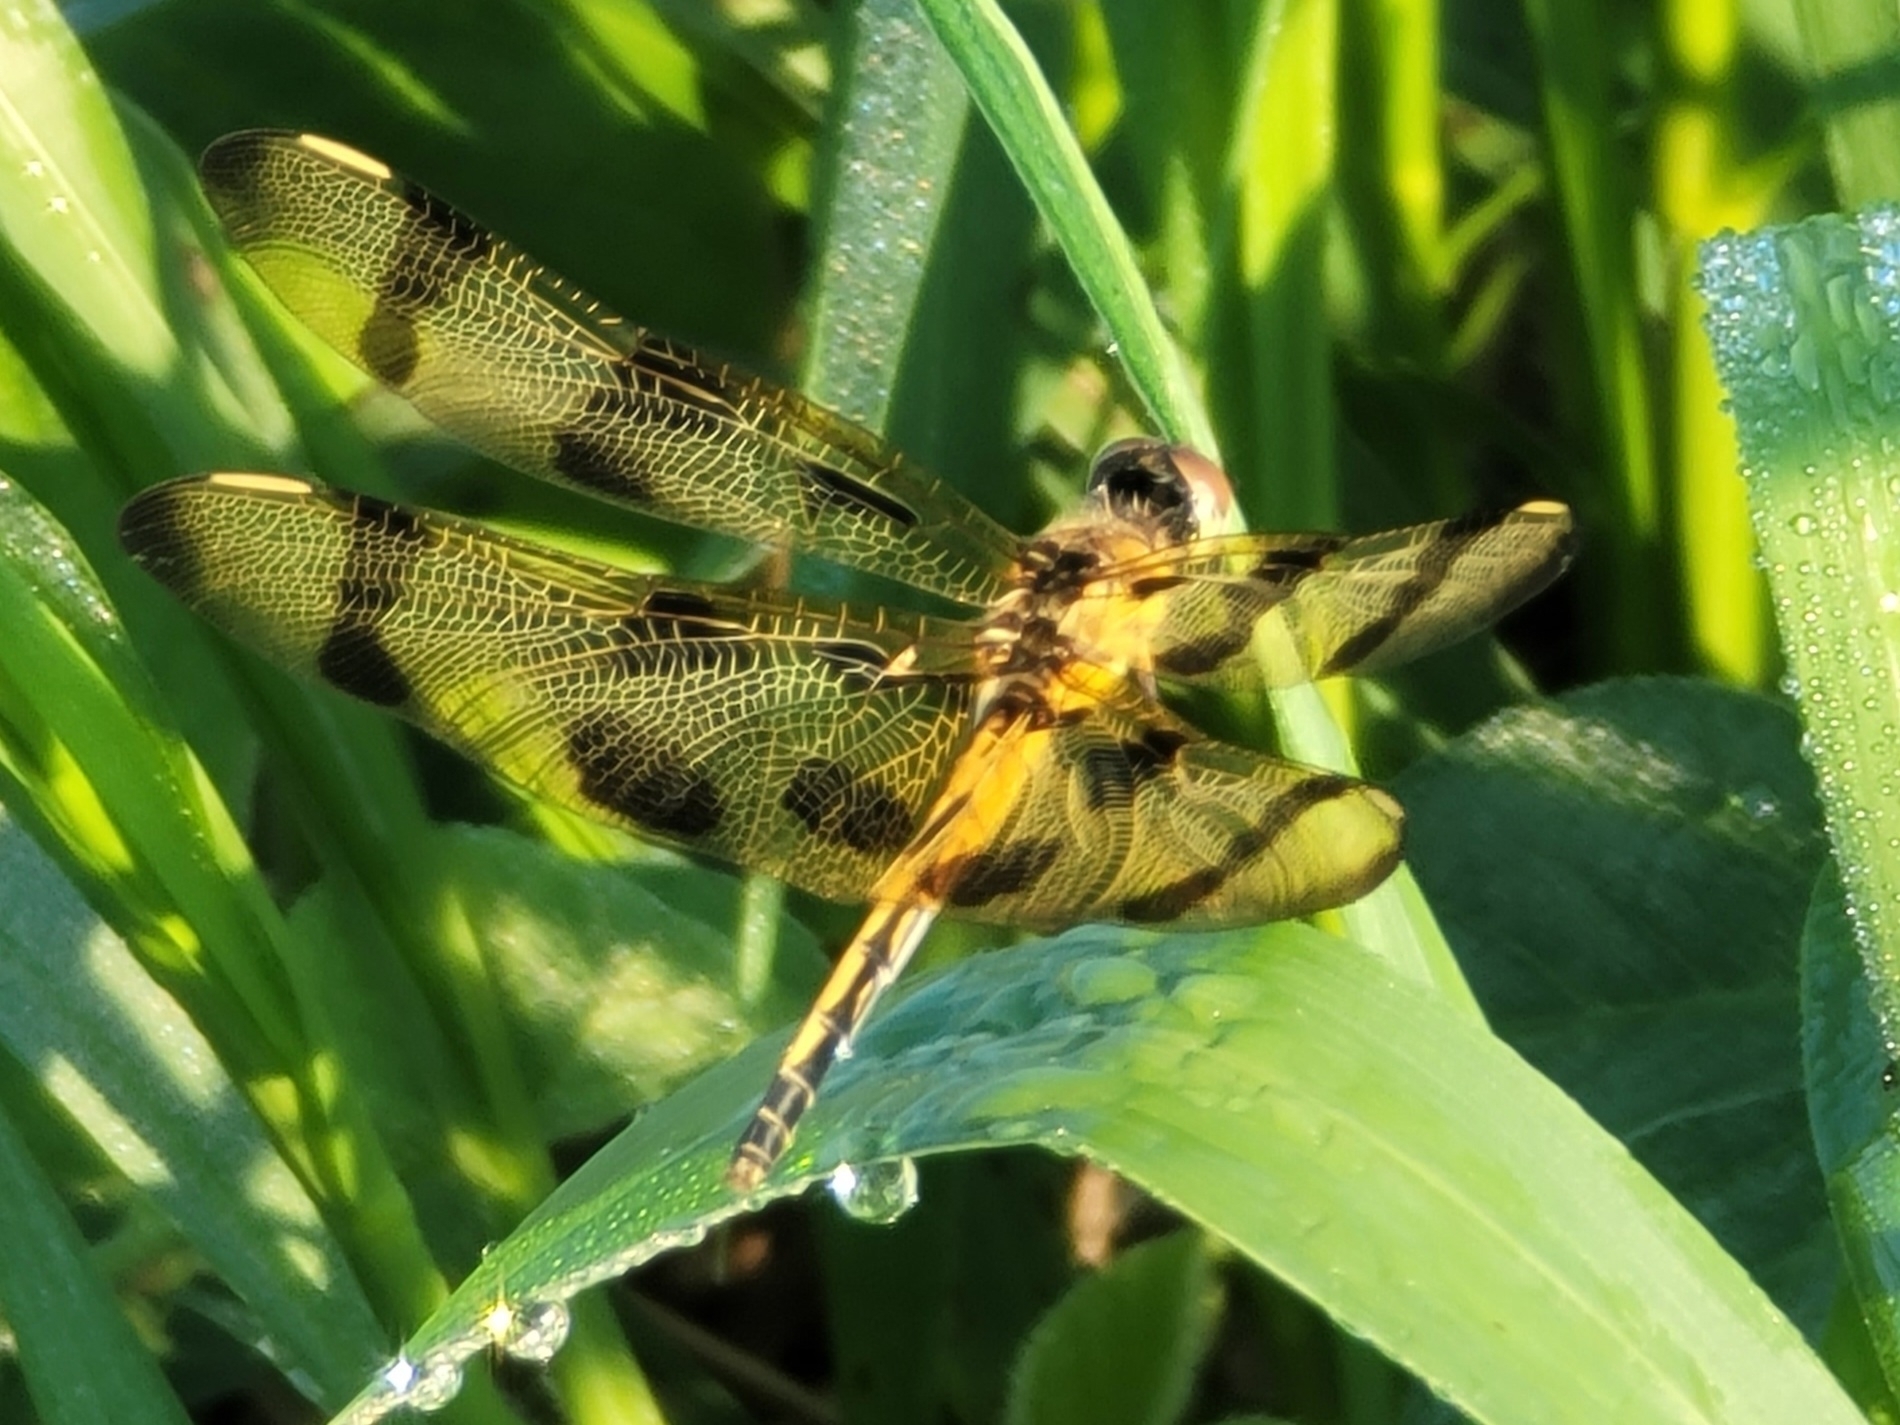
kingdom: Animalia
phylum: Arthropoda
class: Insecta
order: Odonata
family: Libellulidae
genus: Celithemis
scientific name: Celithemis eponina
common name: Halloween pennant
